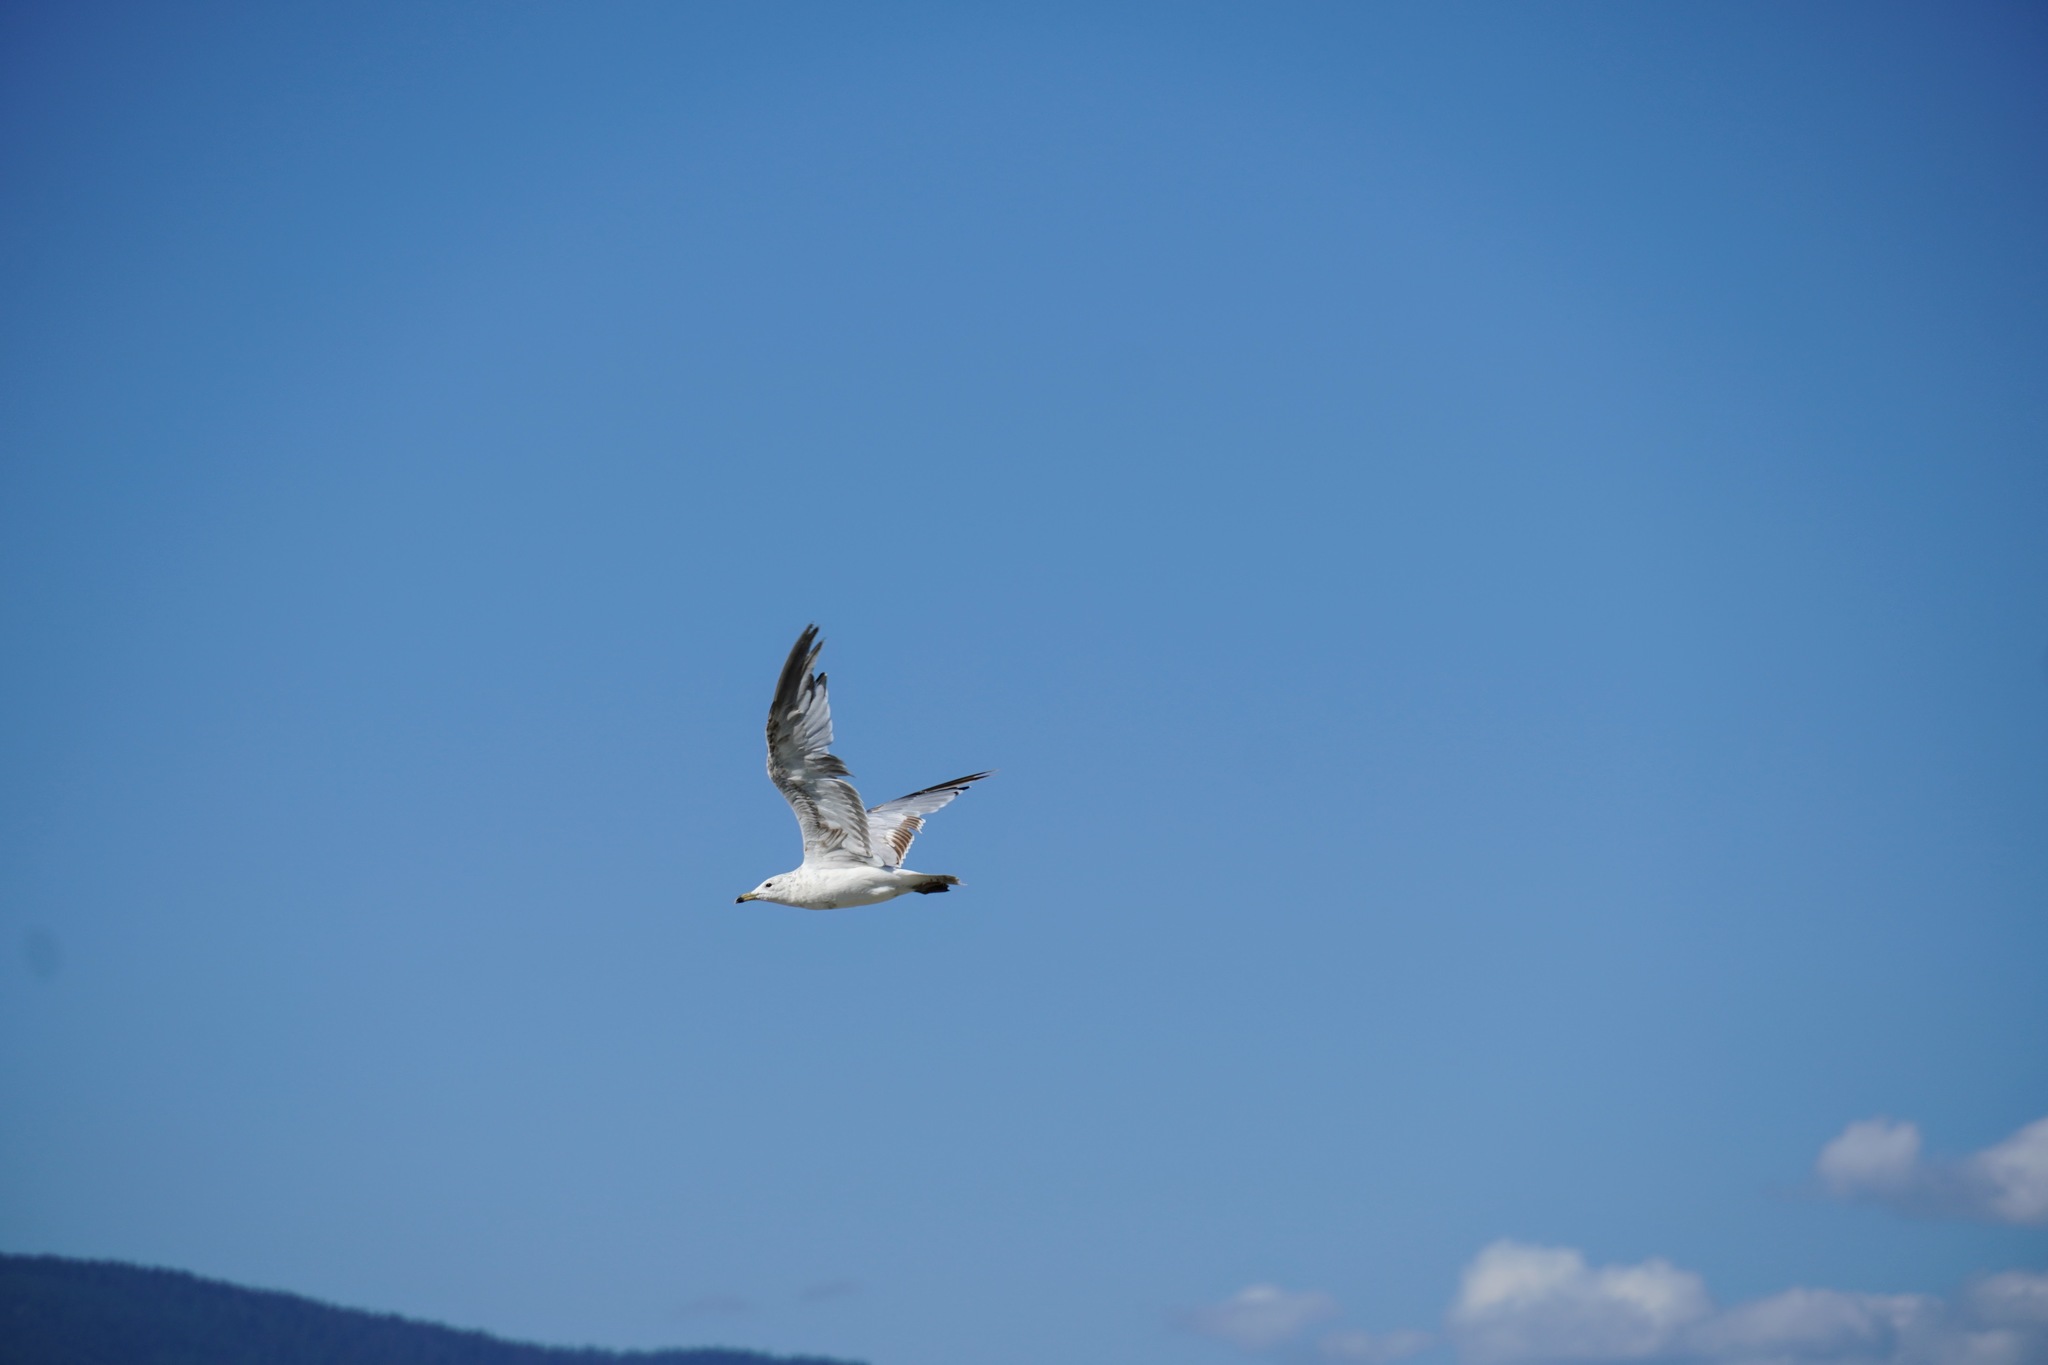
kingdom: Animalia
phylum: Chordata
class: Aves
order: Charadriiformes
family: Laridae
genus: Larus
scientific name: Larus delawarensis
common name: Ring-billed gull
